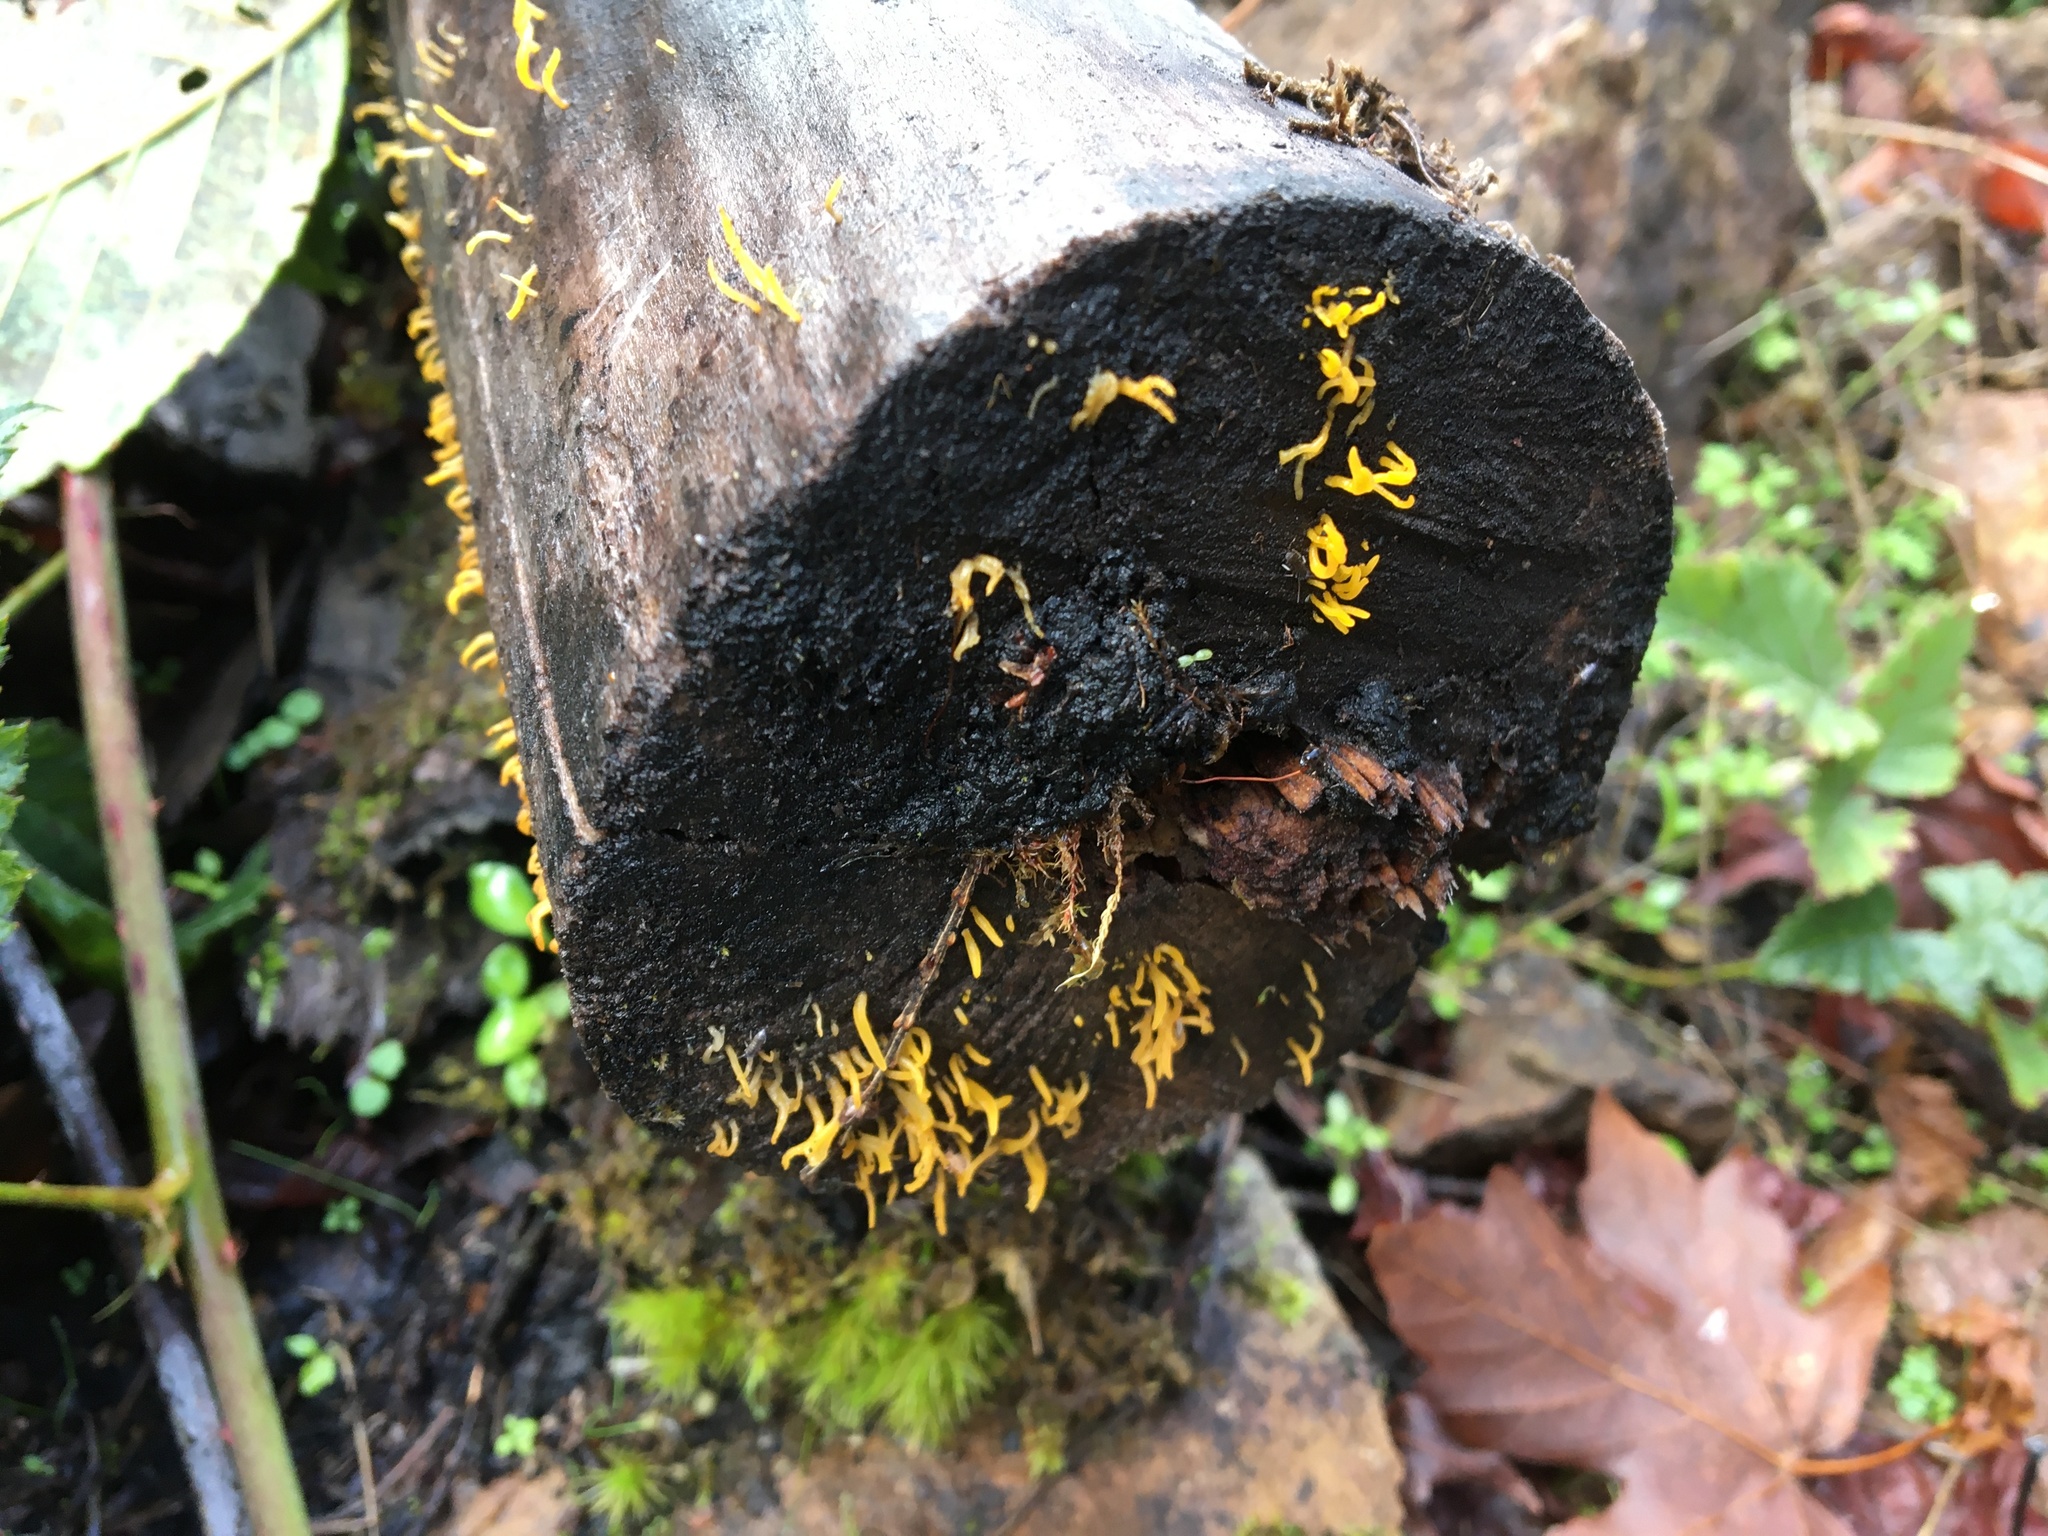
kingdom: Fungi
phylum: Basidiomycota
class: Dacrymycetes
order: Dacrymycetales
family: Dacrymycetaceae
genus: Calocera
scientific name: Calocera cornea
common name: Small stagshorn
